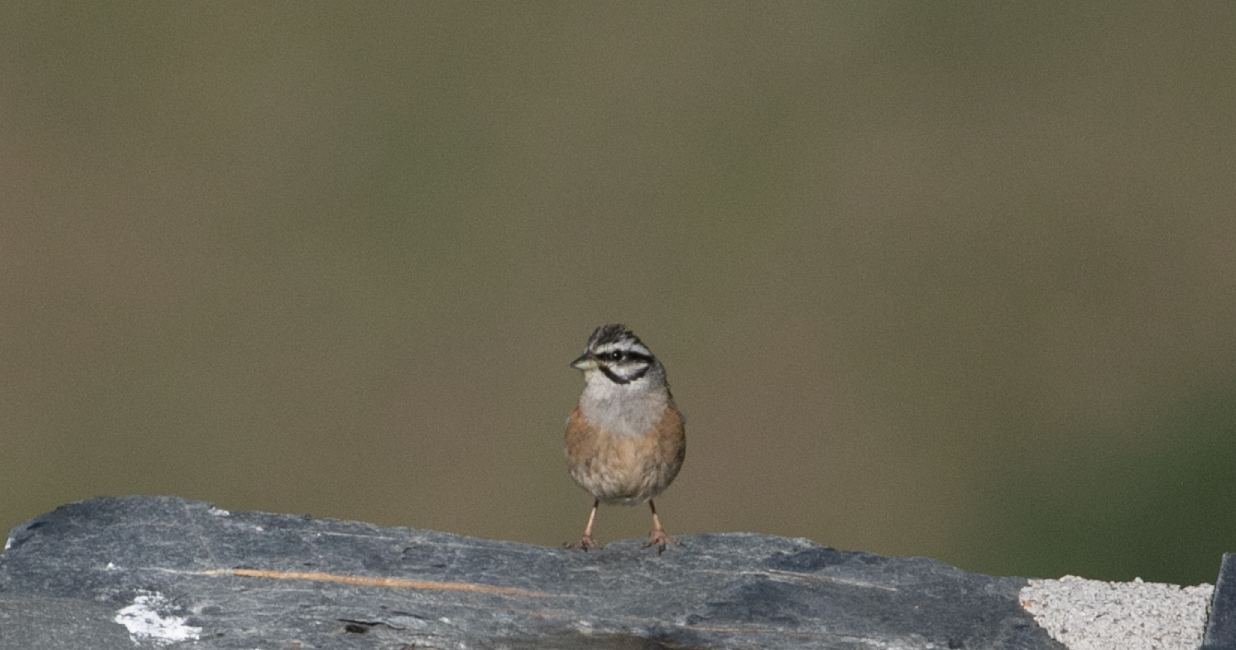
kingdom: Animalia
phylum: Chordata
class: Aves
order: Passeriformes
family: Emberizidae
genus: Emberiza
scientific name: Emberiza cia
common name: Rock bunting
